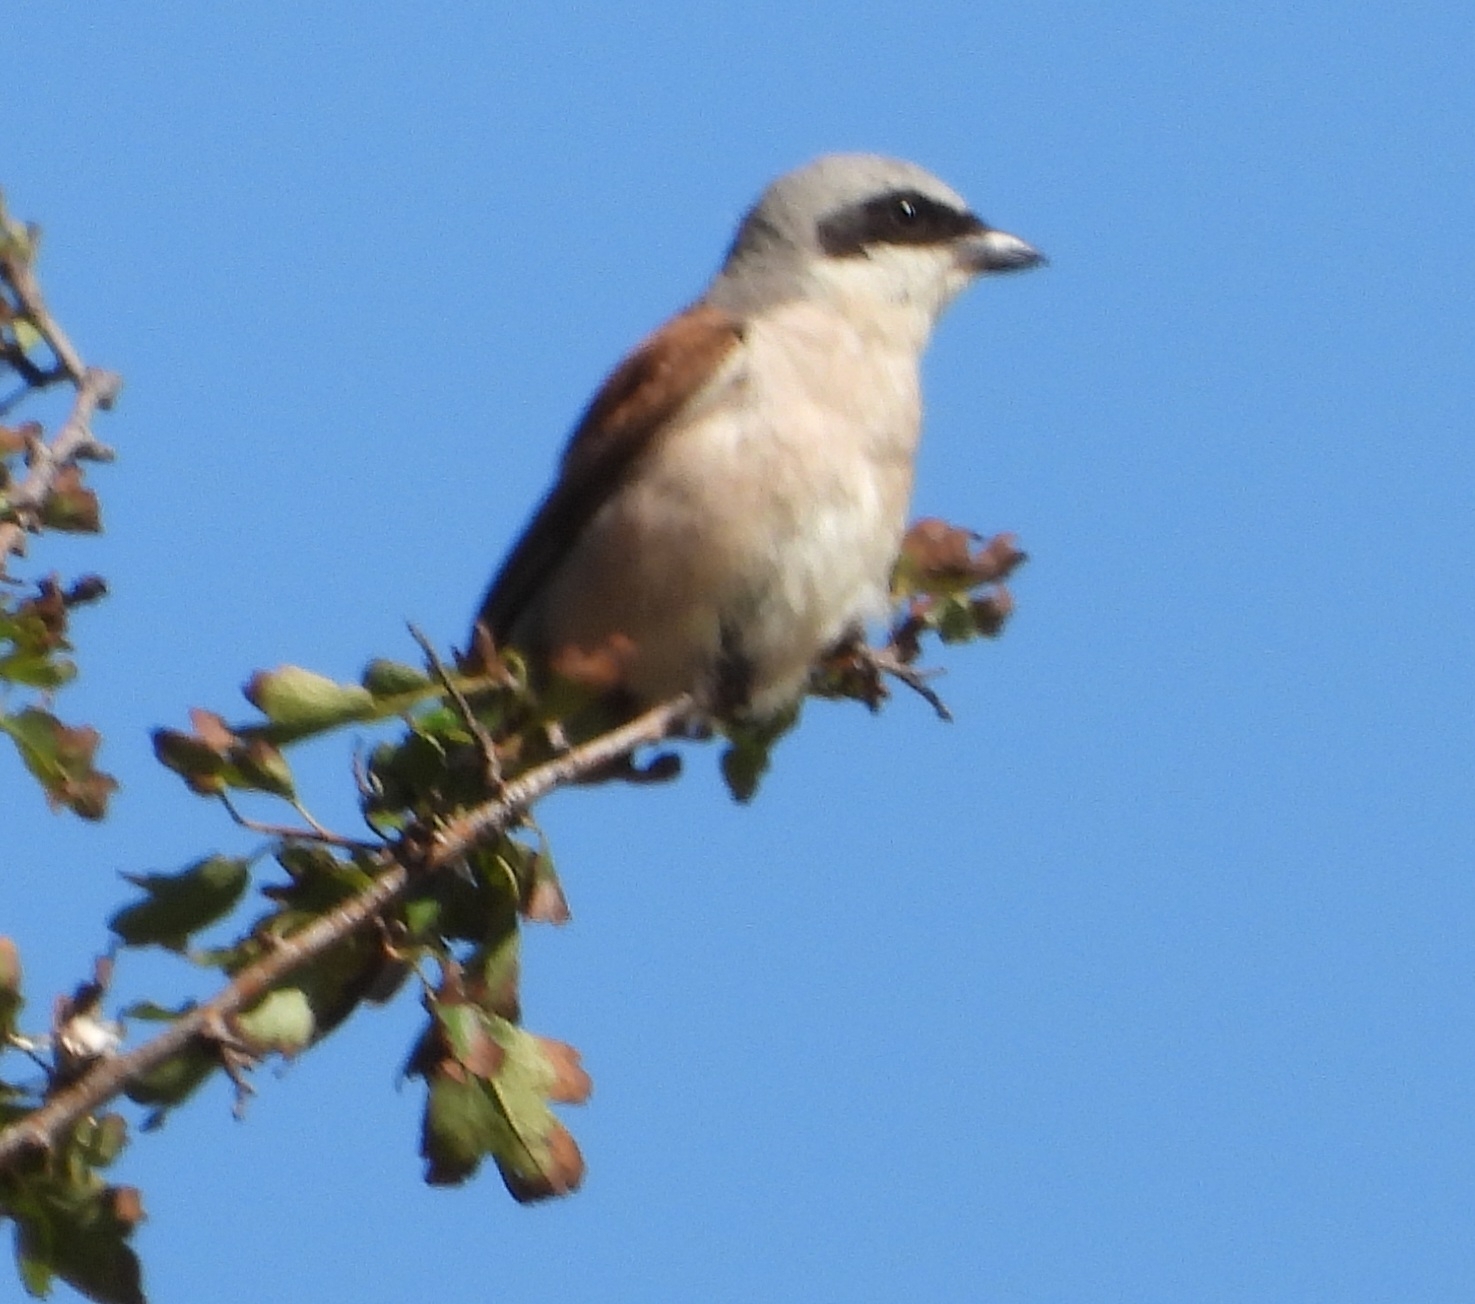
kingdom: Animalia
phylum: Chordata
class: Aves
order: Passeriformes
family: Laniidae
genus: Lanius
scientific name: Lanius collurio
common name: Red-backed shrike
